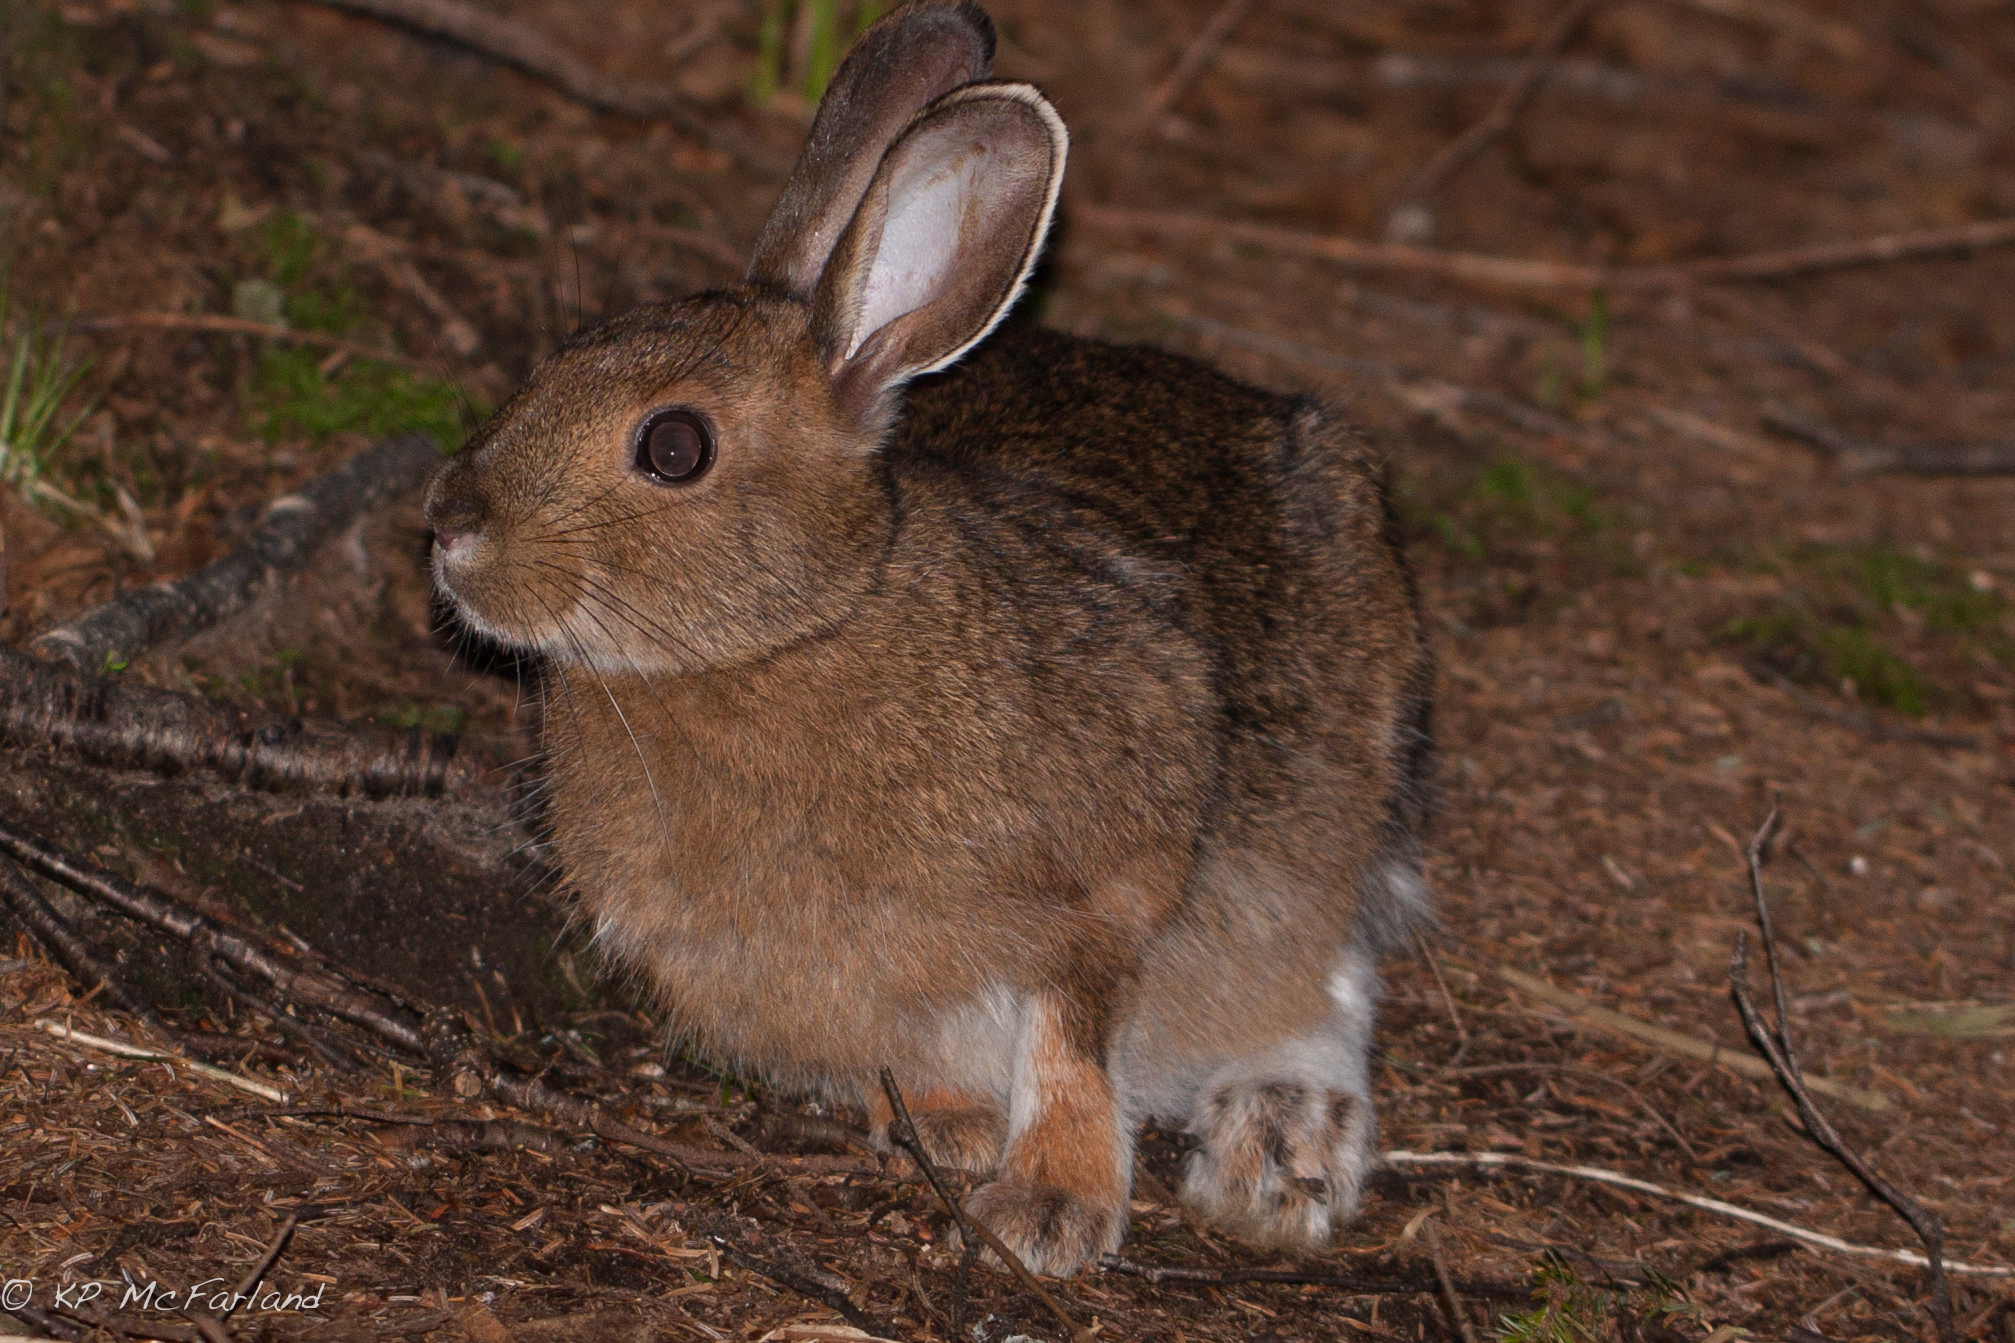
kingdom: Animalia
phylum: Chordata
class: Mammalia
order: Lagomorpha
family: Leporidae
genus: Lepus
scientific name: Lepus americanus
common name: Snowshoe hare
